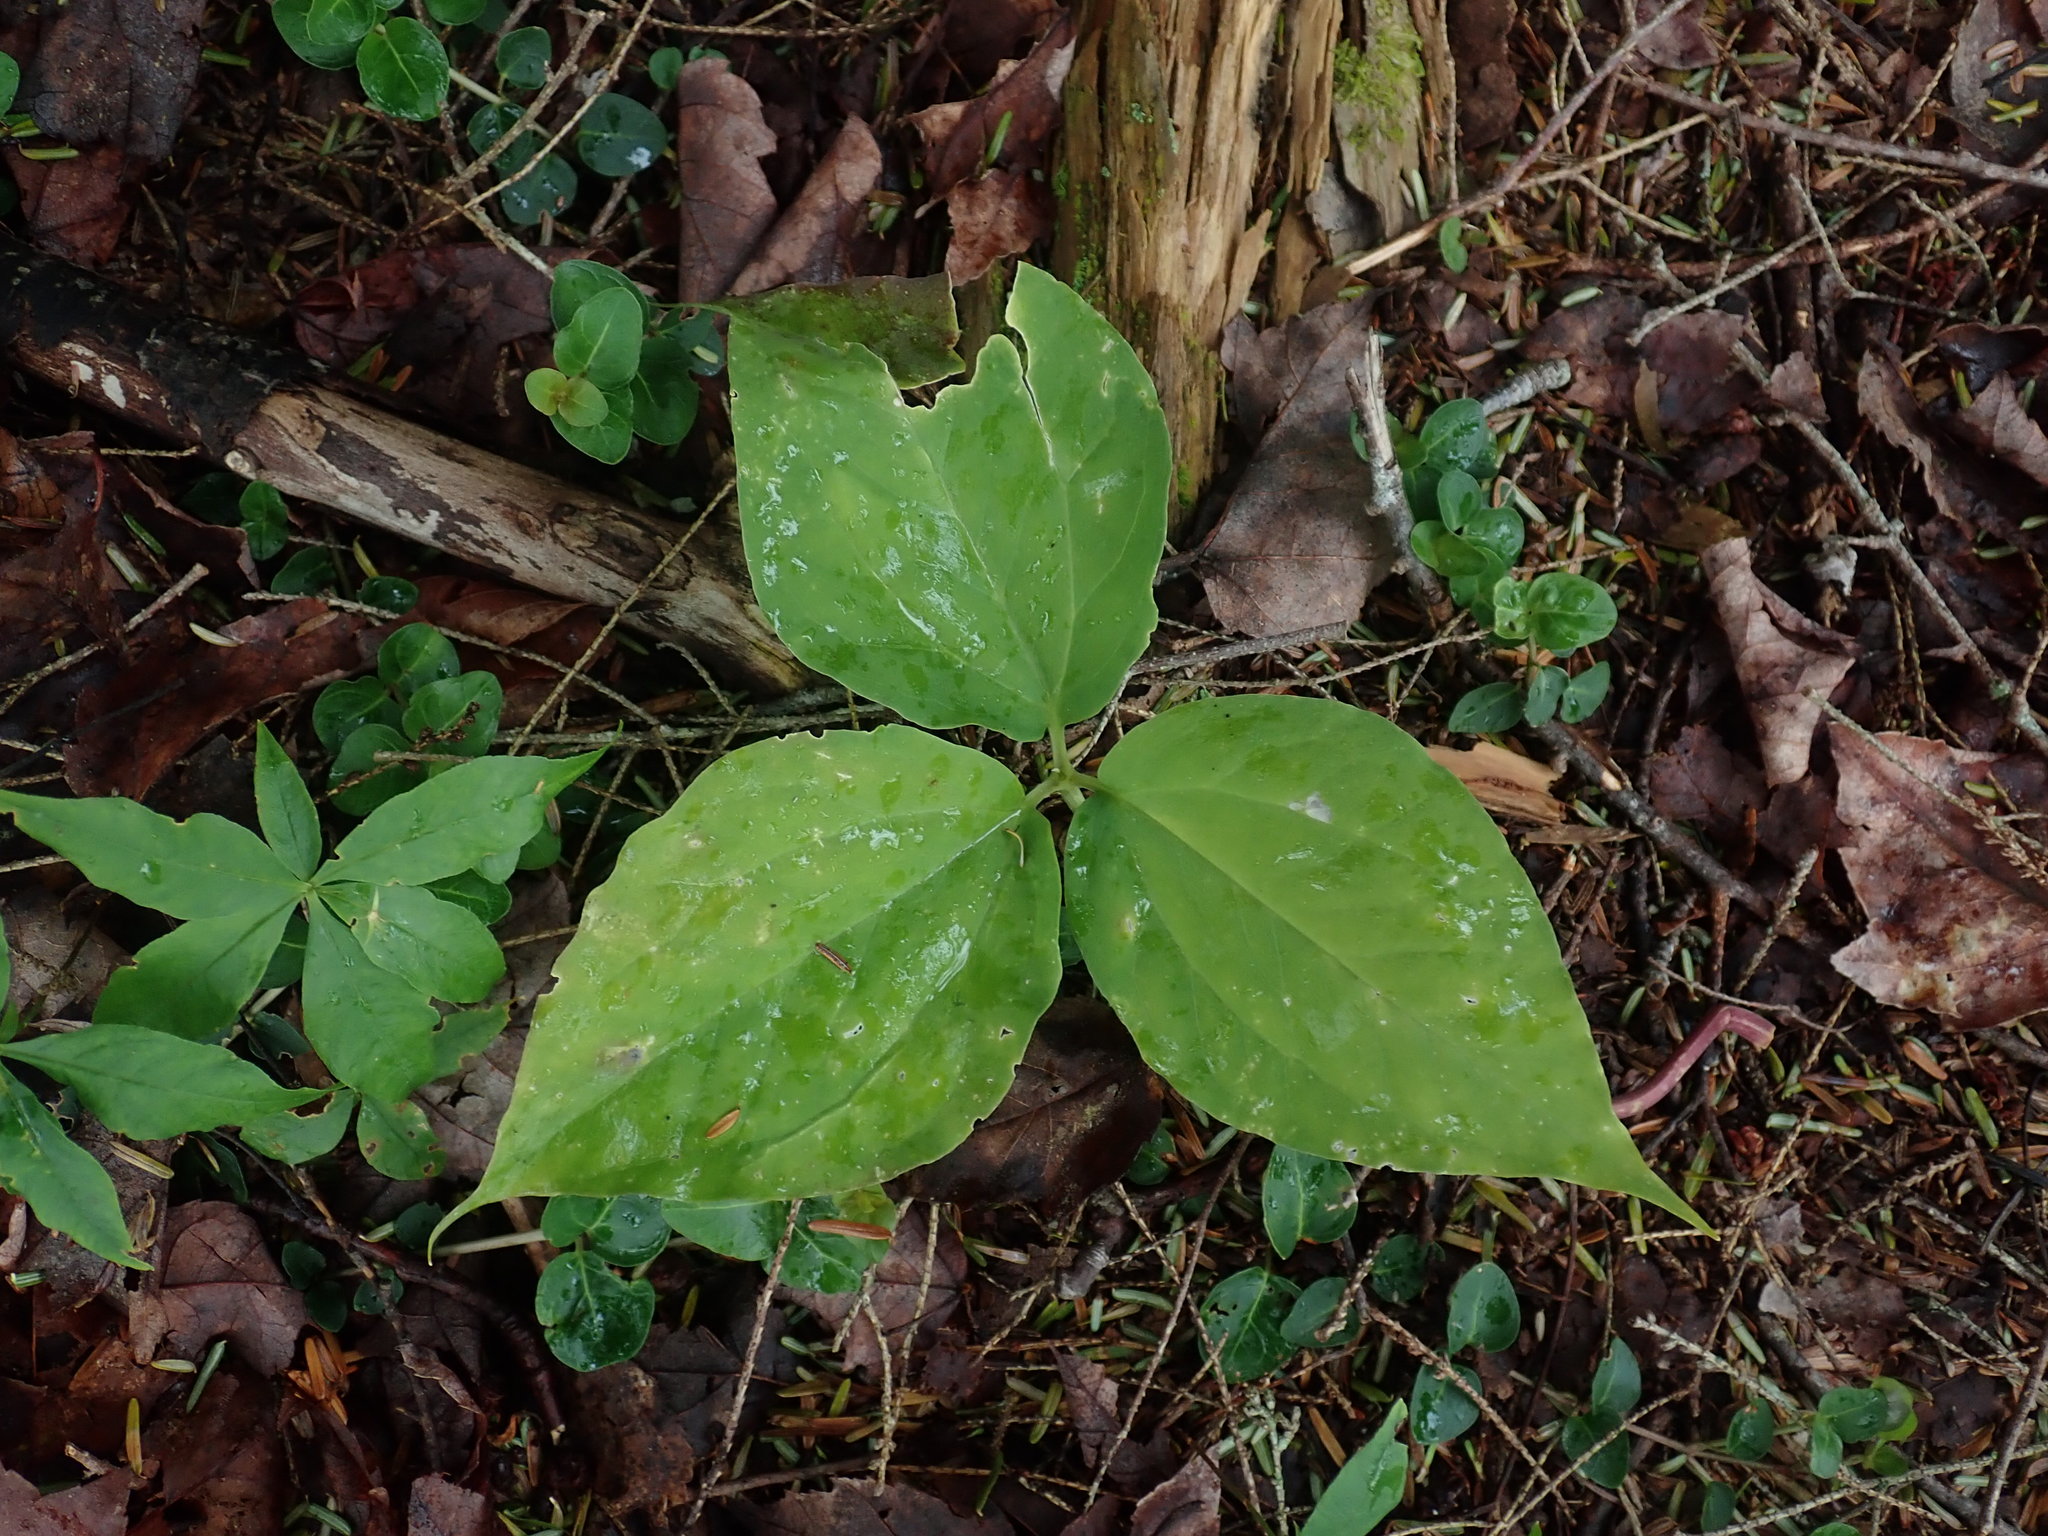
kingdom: Plantae
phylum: Tracheophyta
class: Liliopsida
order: Liliales
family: Melanthiaceae
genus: Trillium
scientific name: Trillium undulatum
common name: Paint trillium
